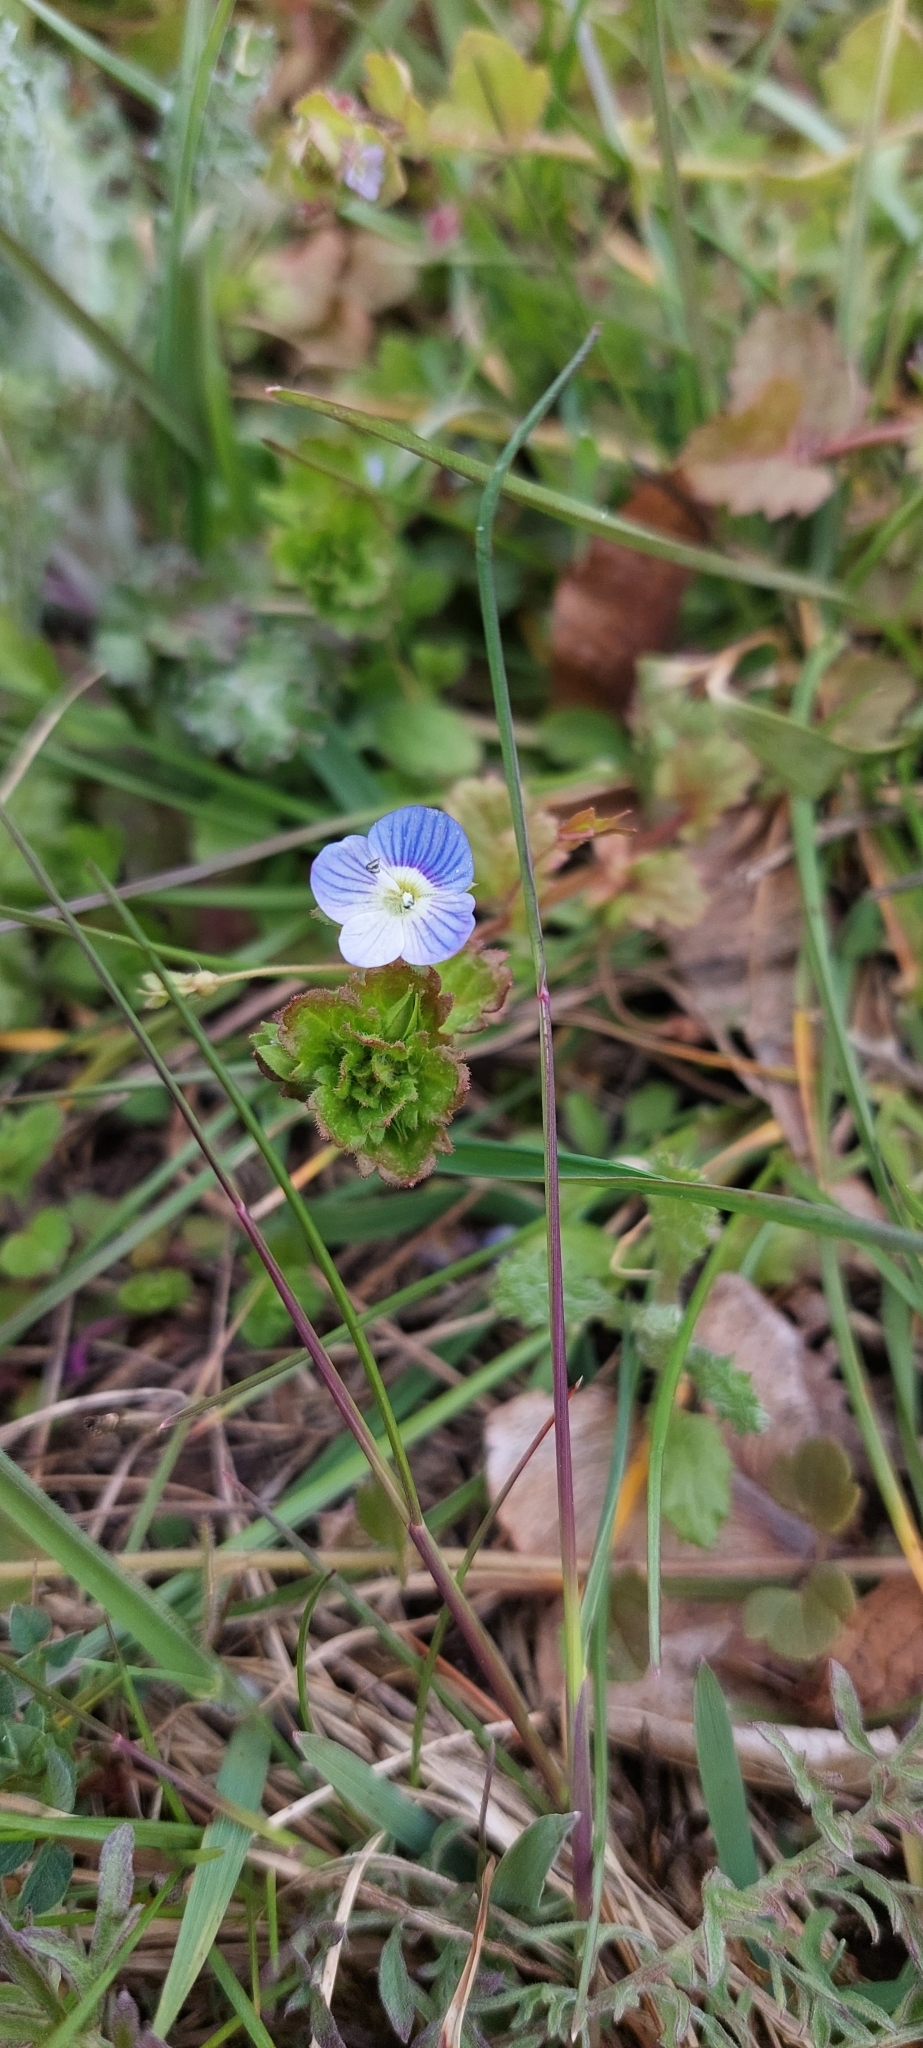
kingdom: Plantae
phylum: Tracheophyta
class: Magnoliopsida
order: Lamiales
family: Plantaginaceae
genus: Veronica
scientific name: Veronica persica
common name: Common field-speedwell
